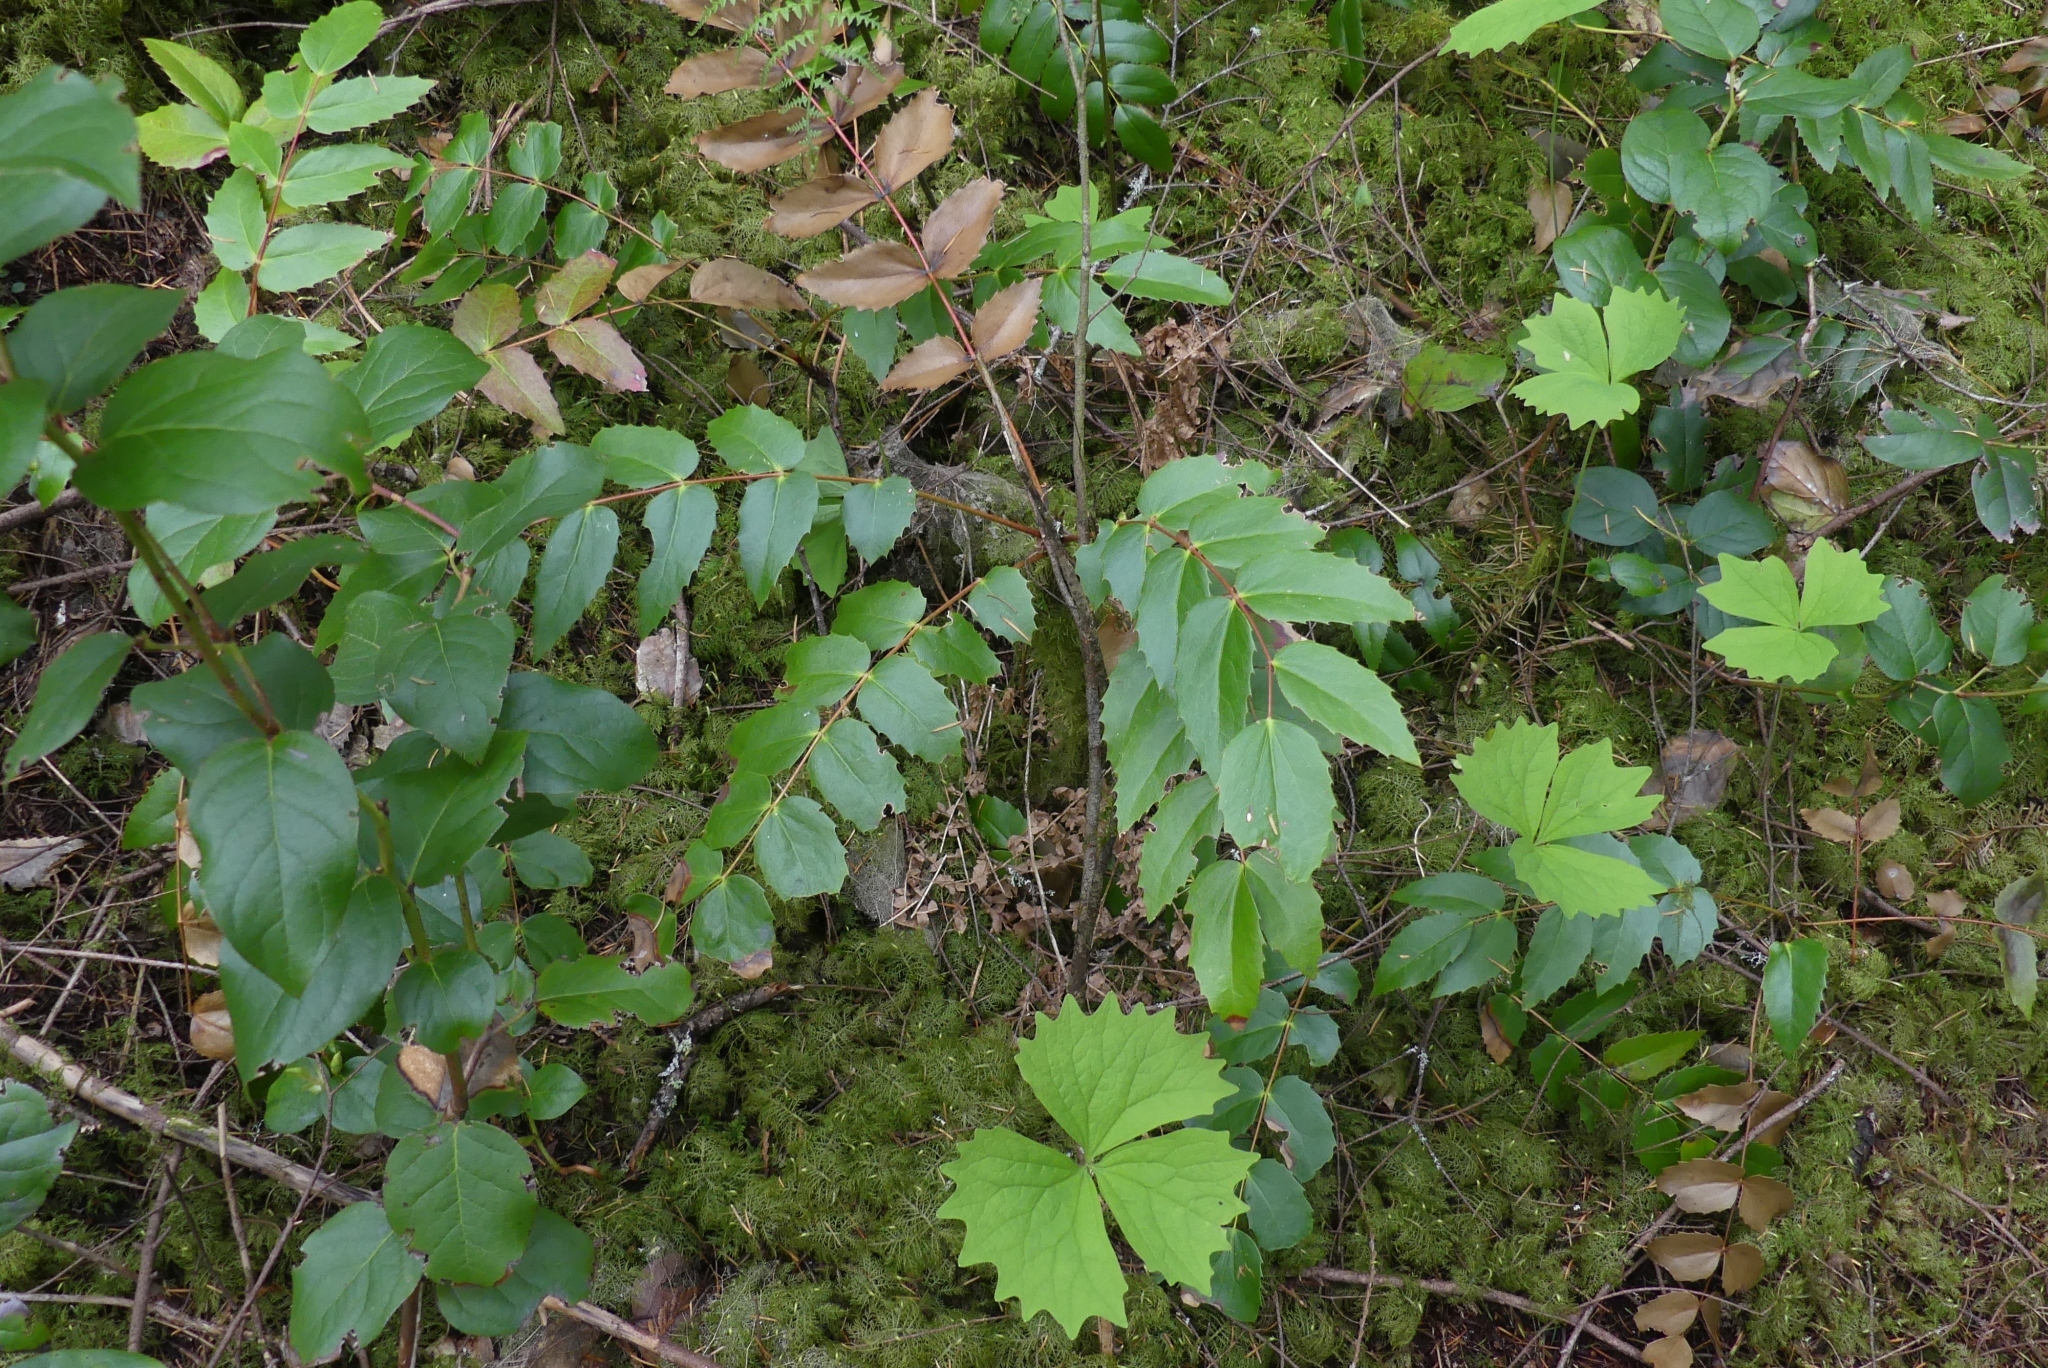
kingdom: Plantae
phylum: Tracheophyta
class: Magnoliopsida
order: Ranunculales
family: Berberidaceae
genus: Mahonia
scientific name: Mahonia nervosa
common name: Cascade oregon-grape
